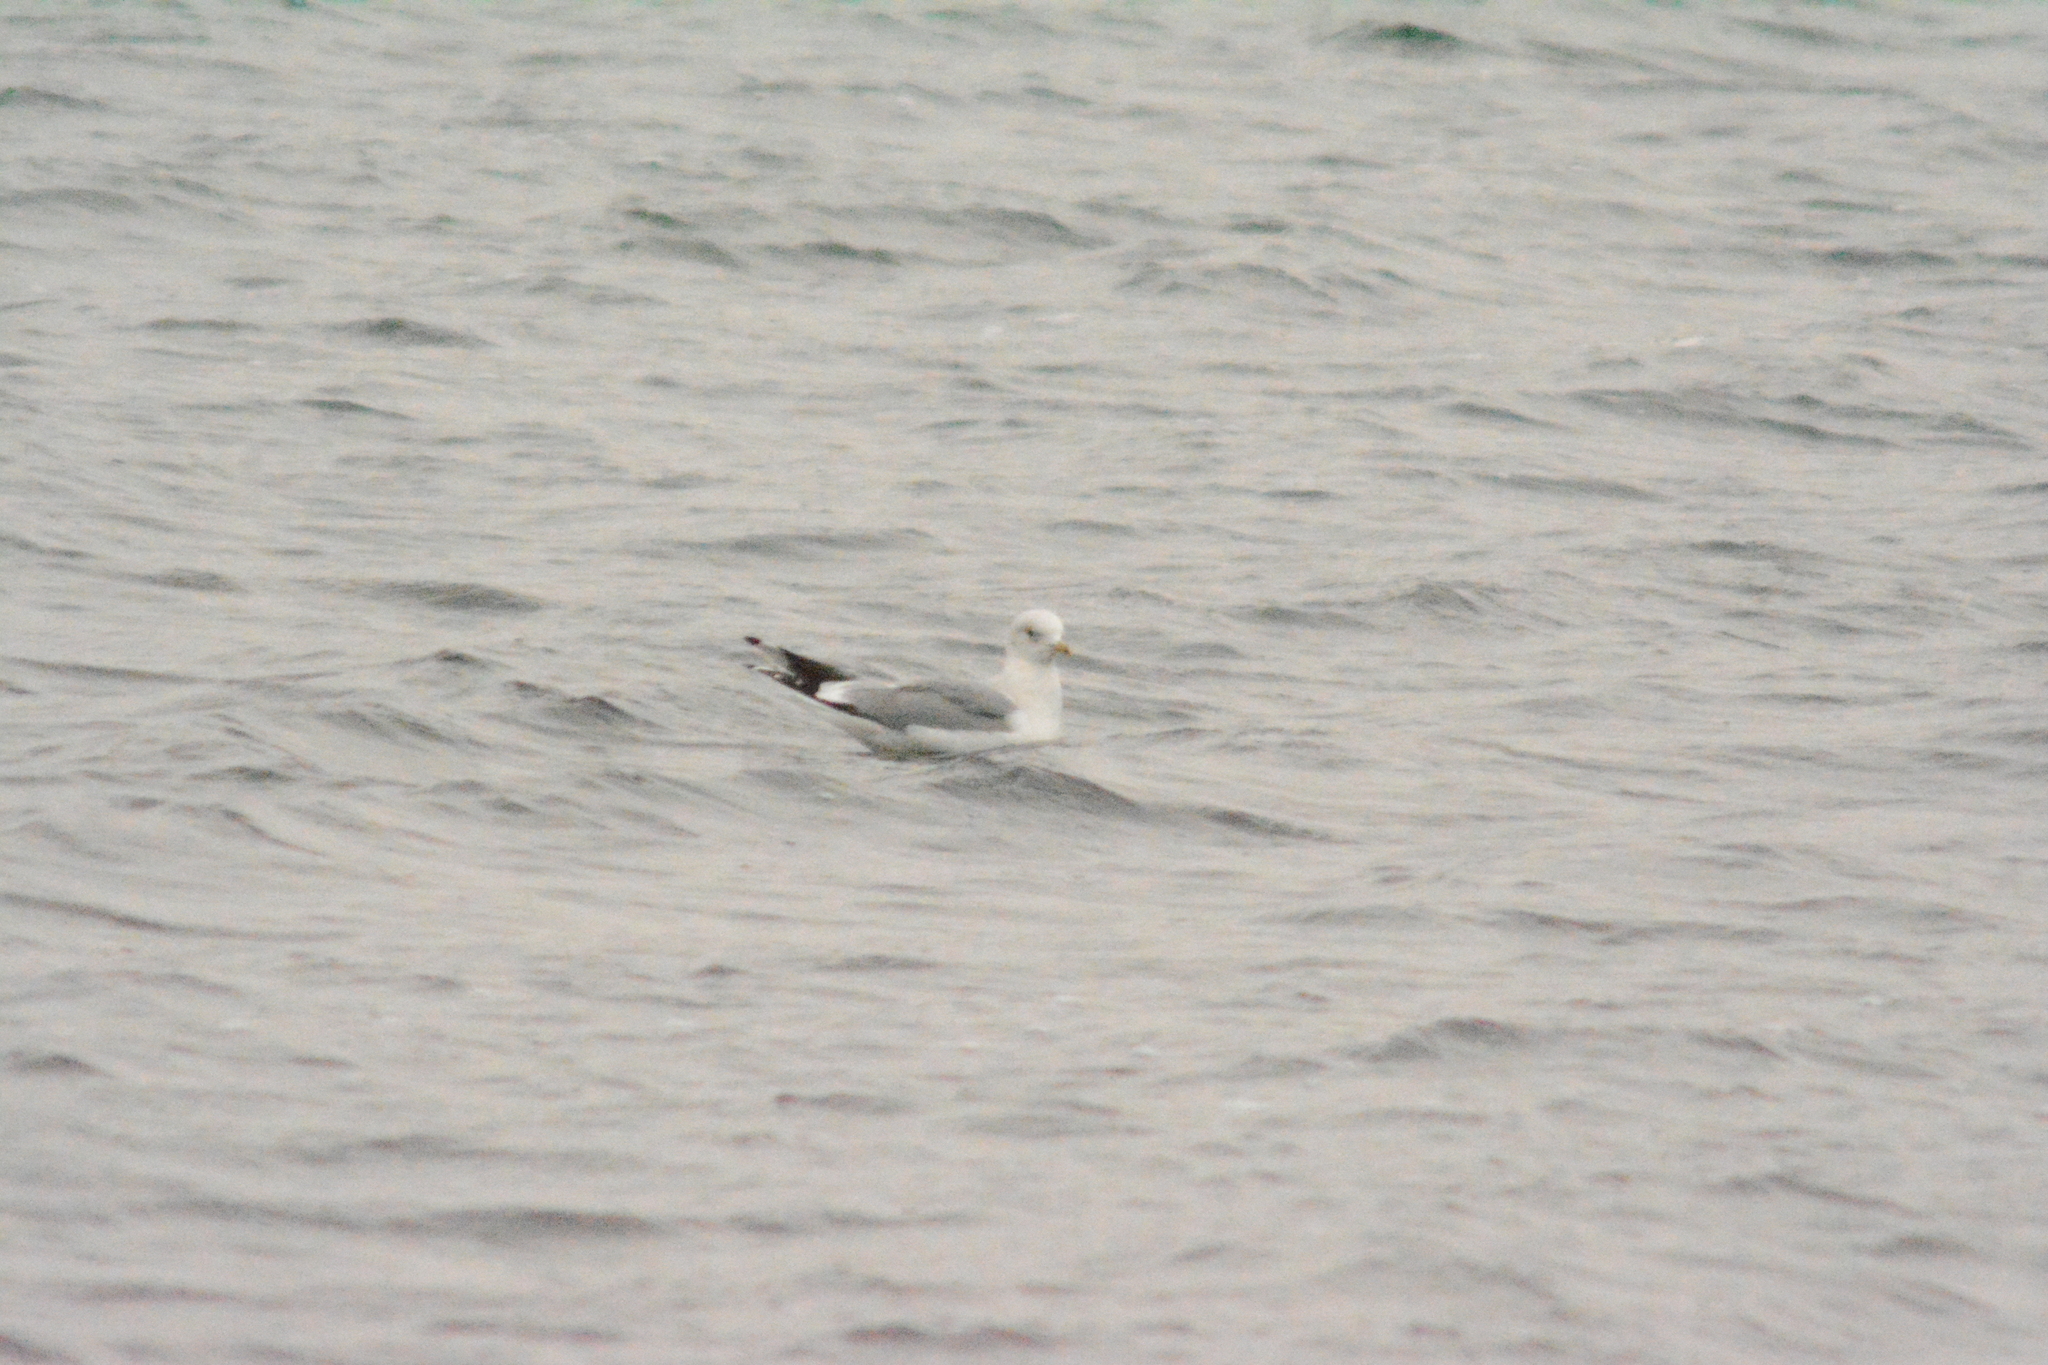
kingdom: Animalia
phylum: Chordata
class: Aves
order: Charadriiformes
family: Laridae
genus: Larus
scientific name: Larus canus
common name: Mew gull
